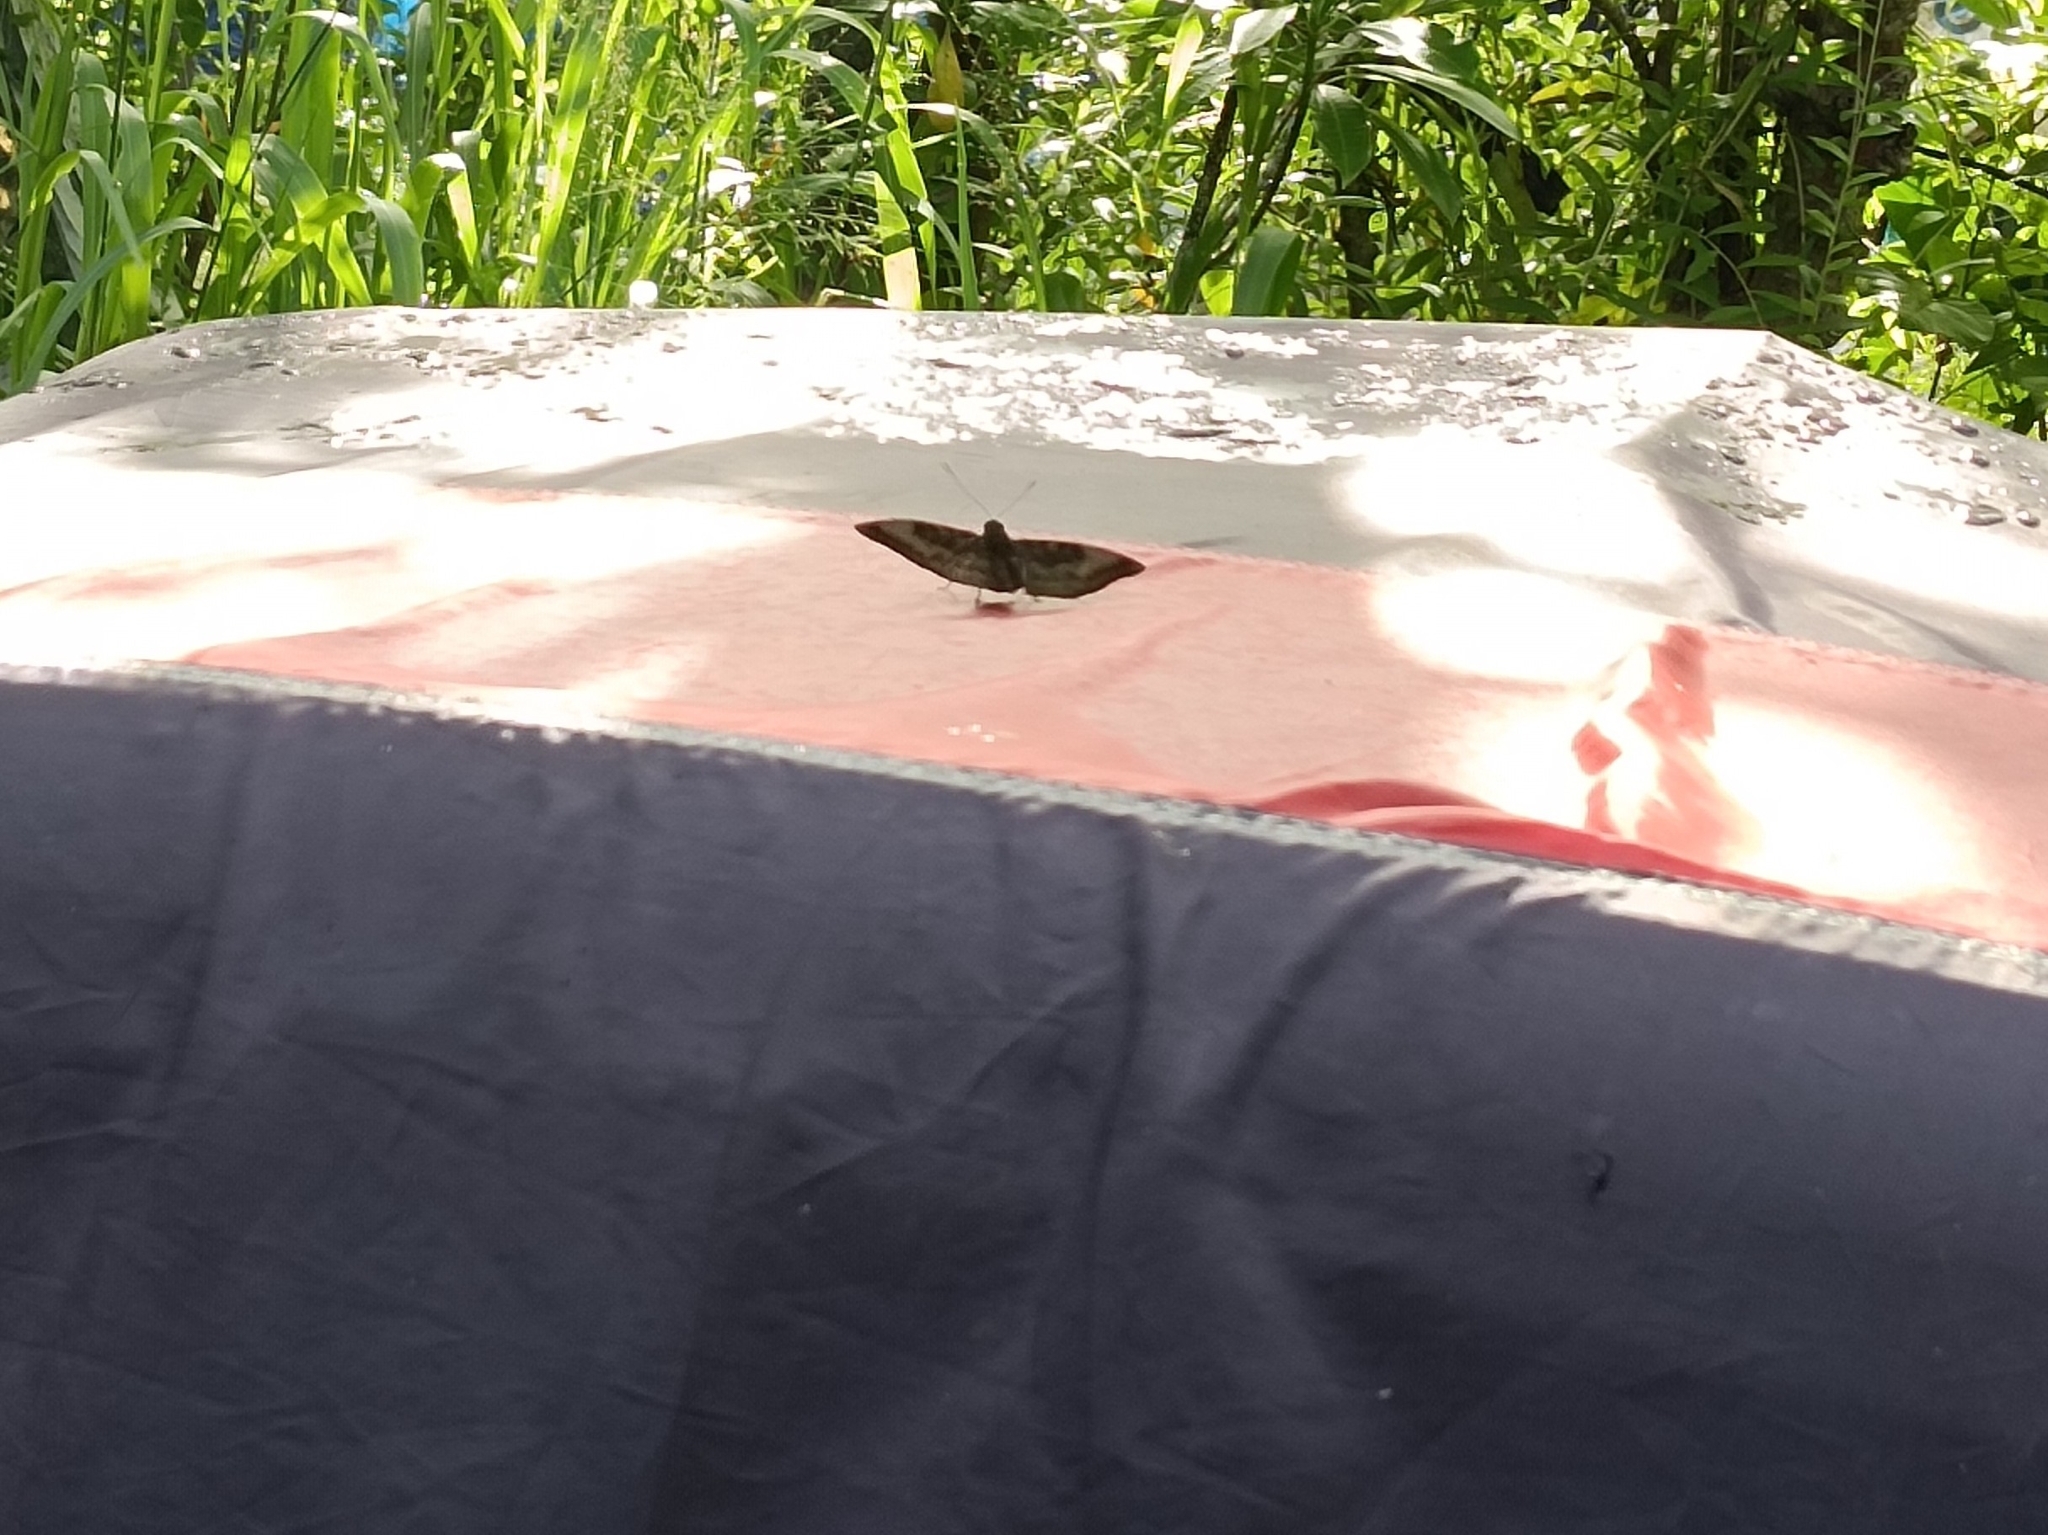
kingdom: Animalia
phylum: Arthropoda
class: Insecta
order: Lepidoptera
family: Nymphalidae
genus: Euthalia
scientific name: Euthalia aconthea
